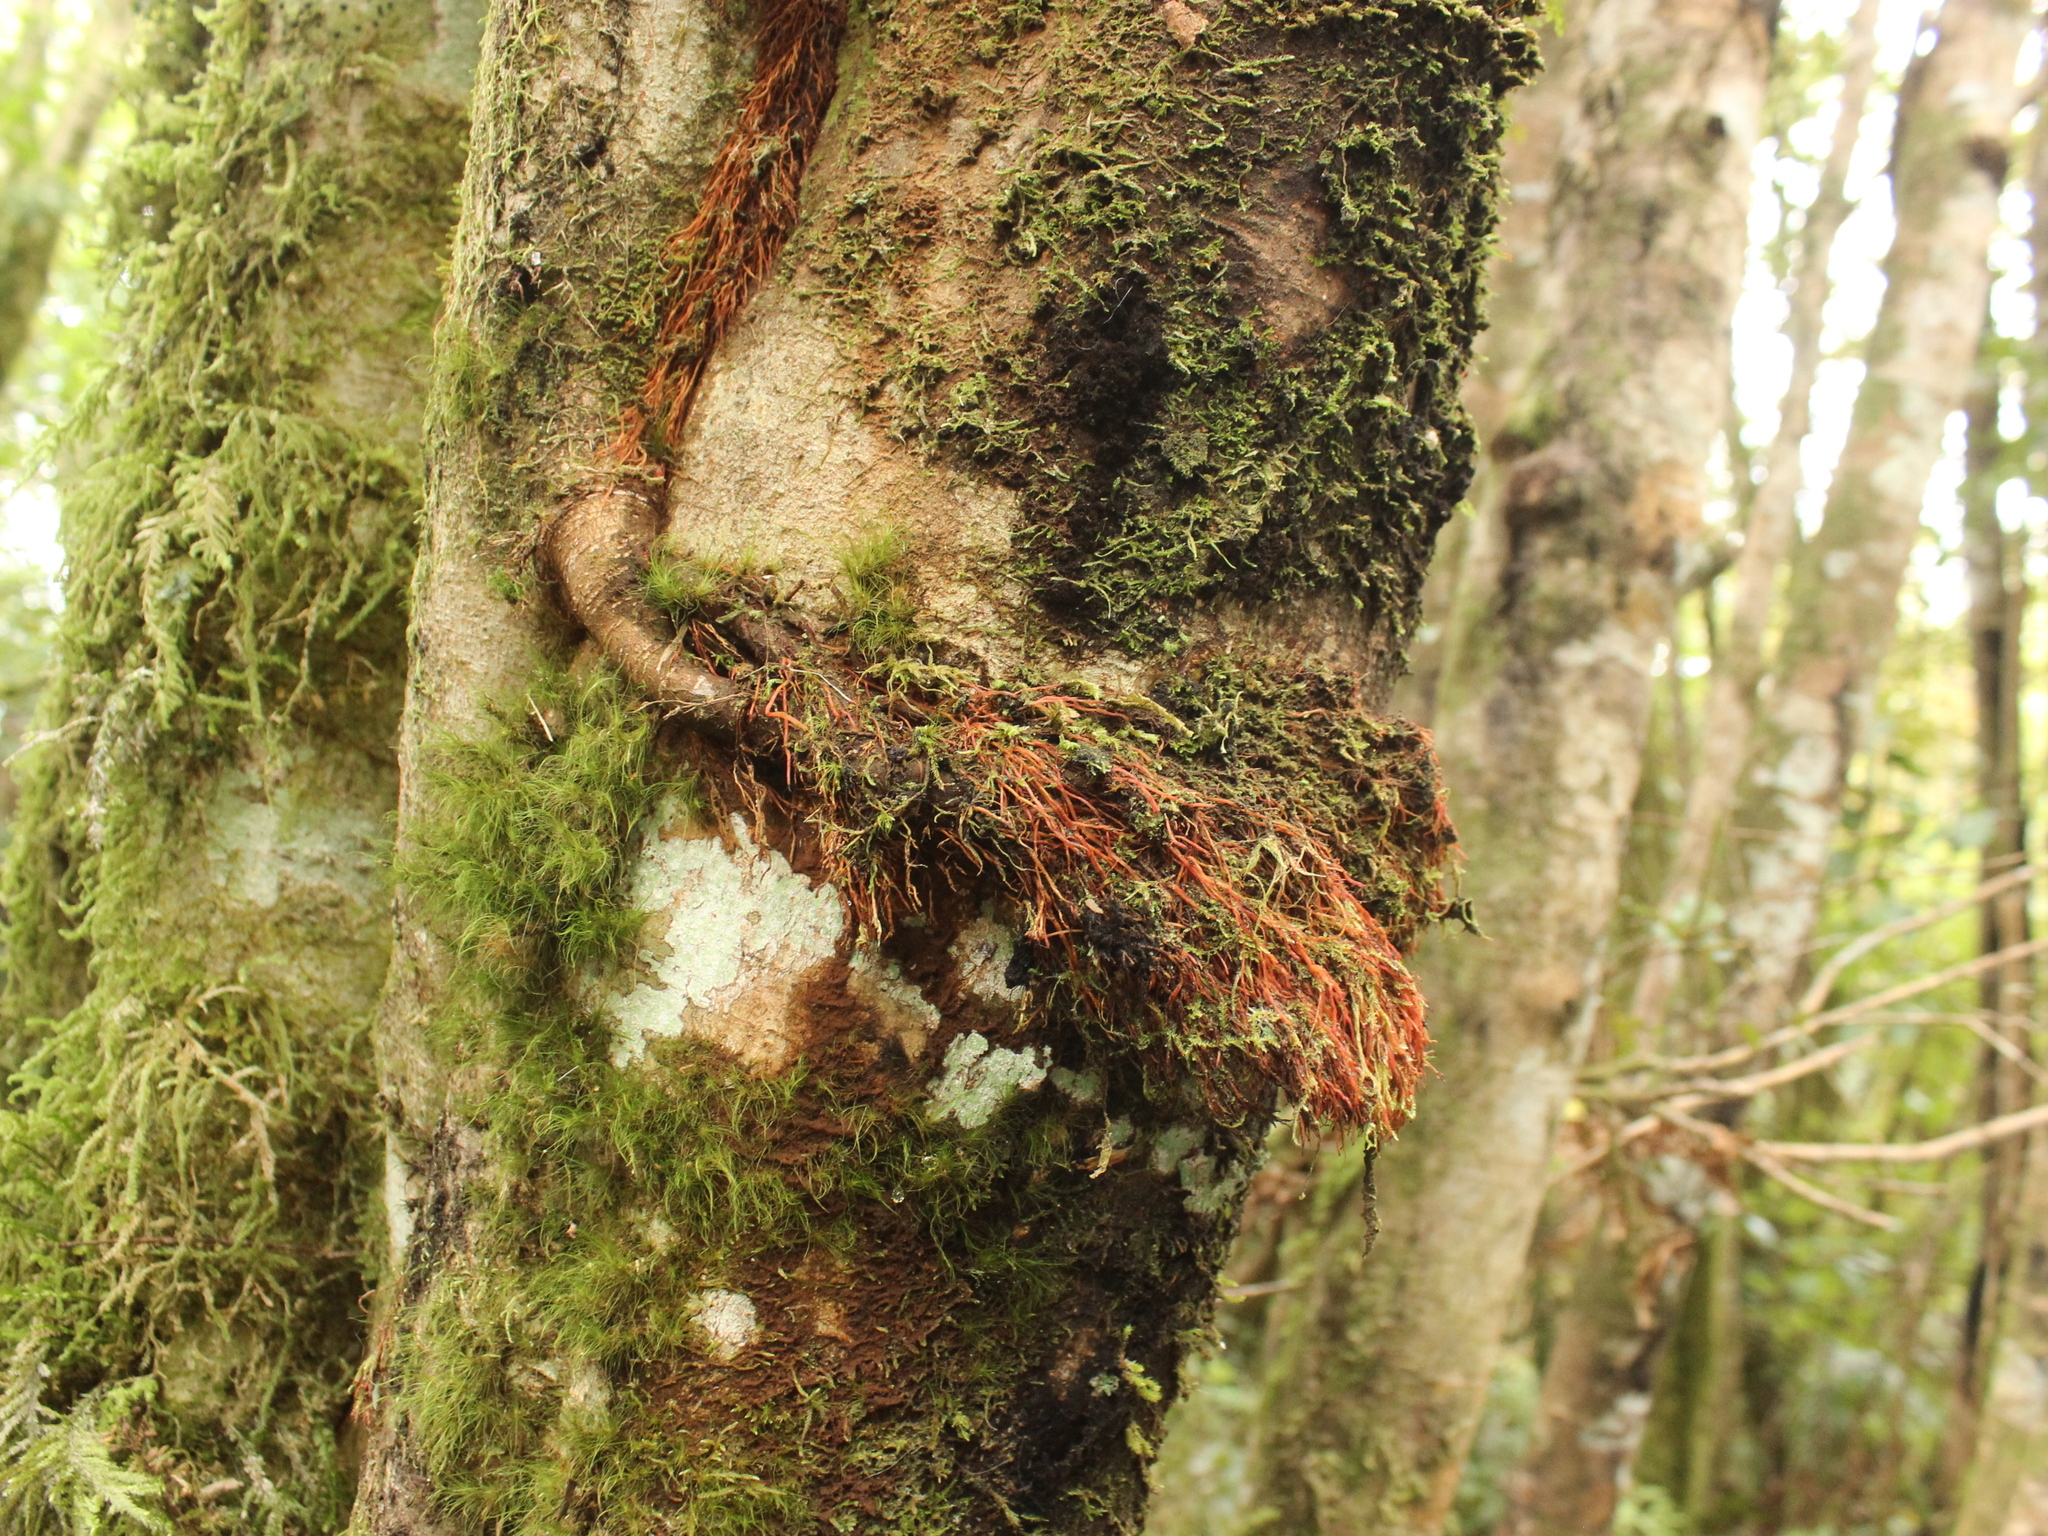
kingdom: Plantae
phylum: Tracheophyta
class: Magnoliopsida
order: Oxalidales
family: Cunoniaceae
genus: Pterophylla
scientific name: Pterophylla racemosa
